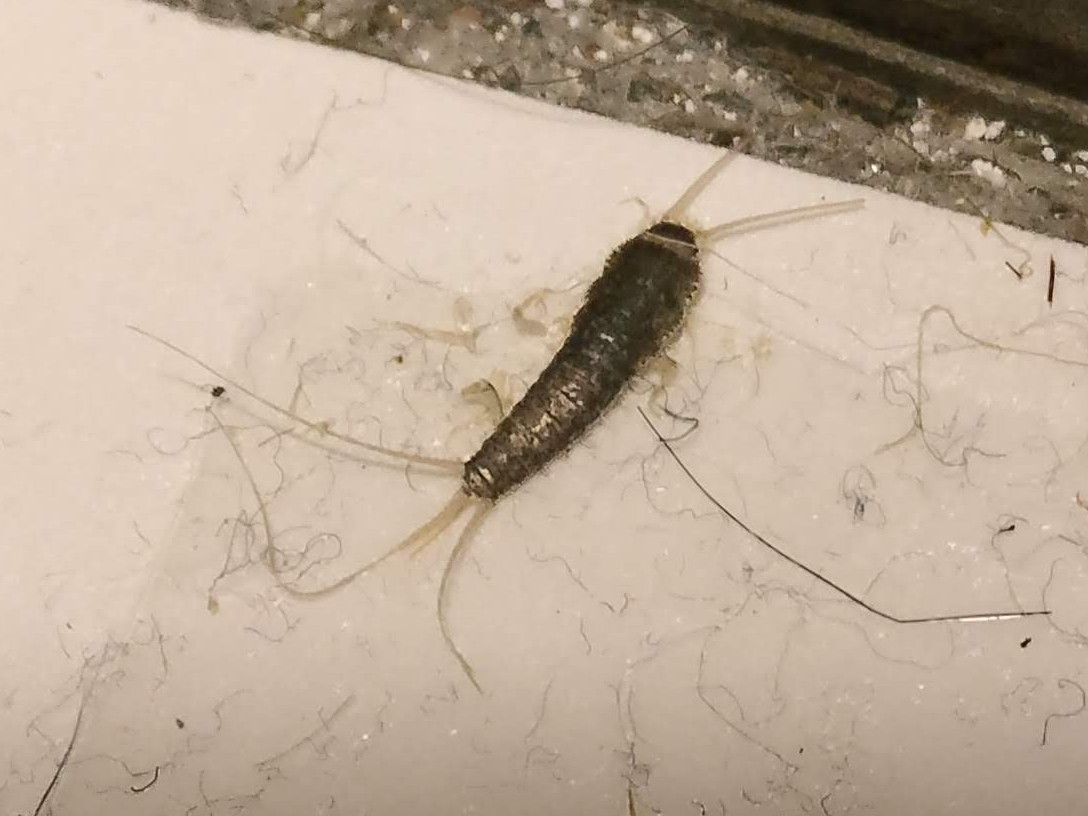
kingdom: Animalia
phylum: Arthropoda
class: Insecta
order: Zygentoma
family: Lepismatidae
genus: Ctenolepisma
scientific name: Ctenolepisma longicaudatum
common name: Silverfish
